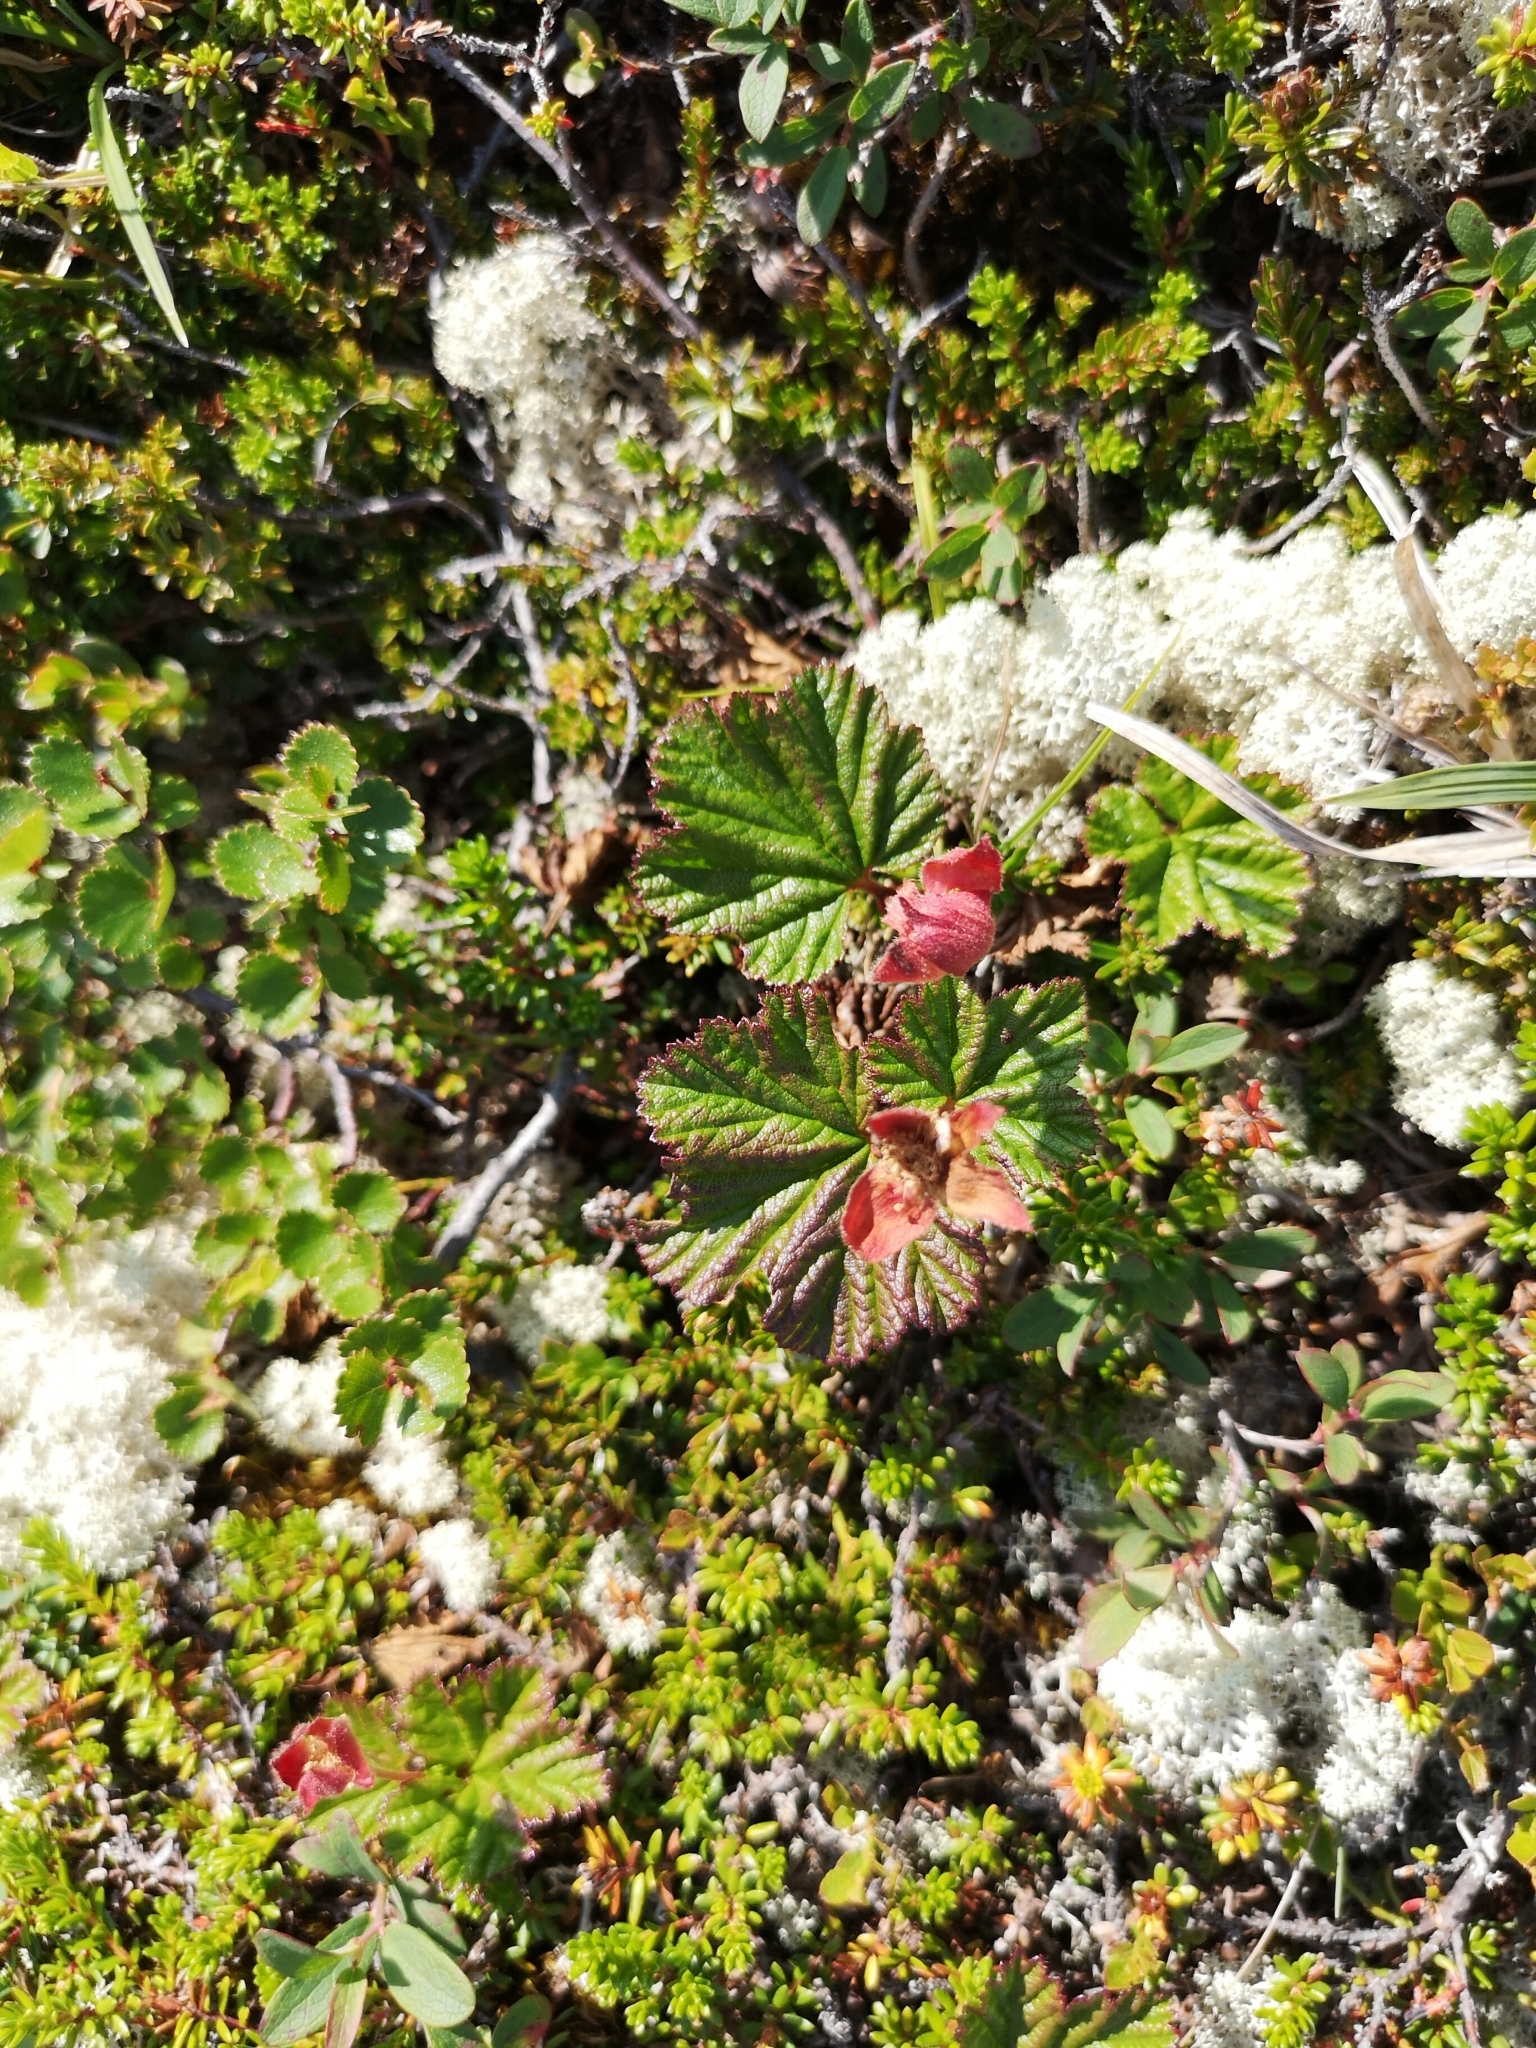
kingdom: Plantae
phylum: Tracheophyta
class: Magnoliopsida
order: Rosales
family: Rosaceae
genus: Rubus
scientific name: Rubus chamaemorus
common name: Cloudberry
